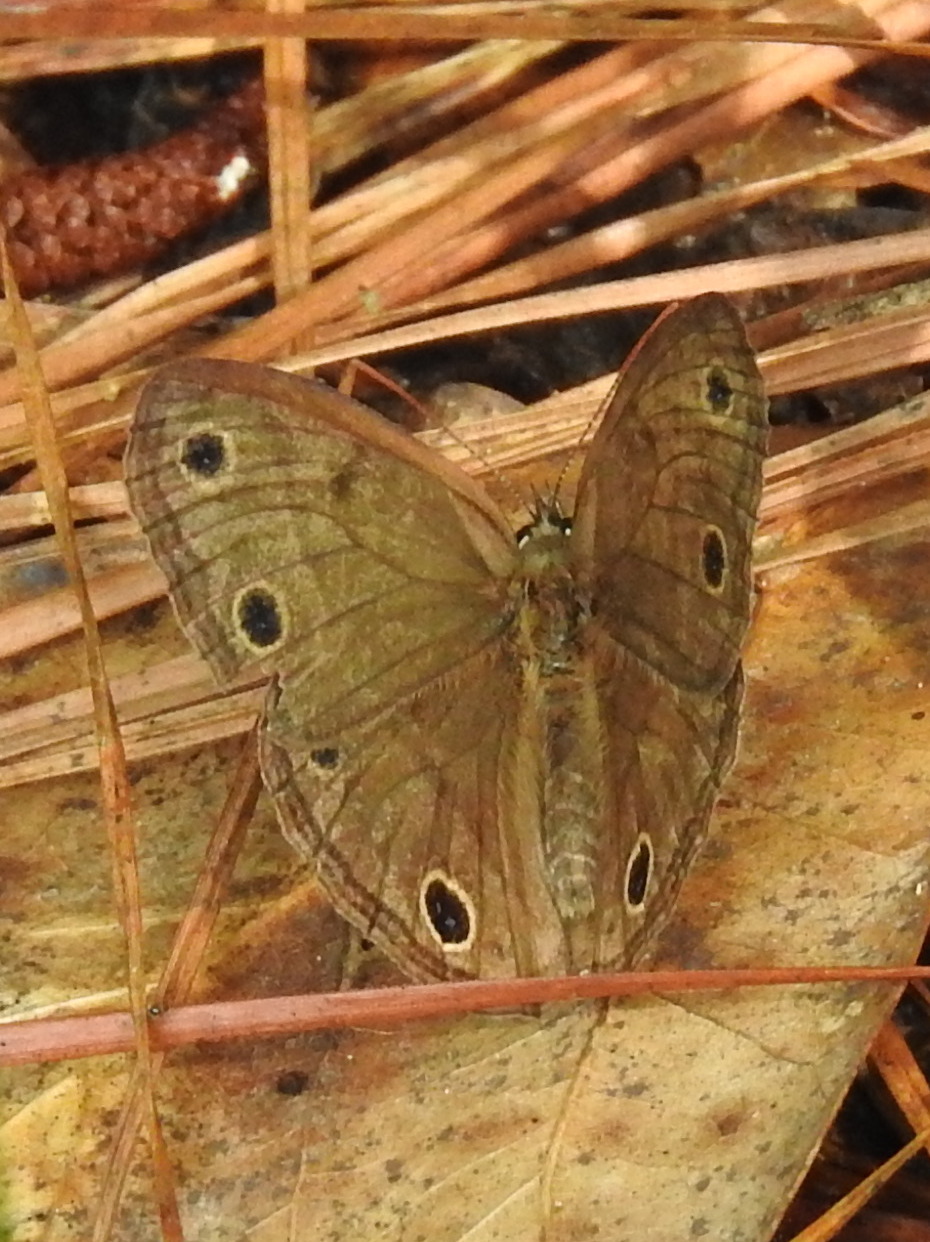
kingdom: Animalia
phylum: Arthropoda
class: Insecta
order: Lepidoptera
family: Nymphalidae
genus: Euptychia
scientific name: Euptychia cymela
